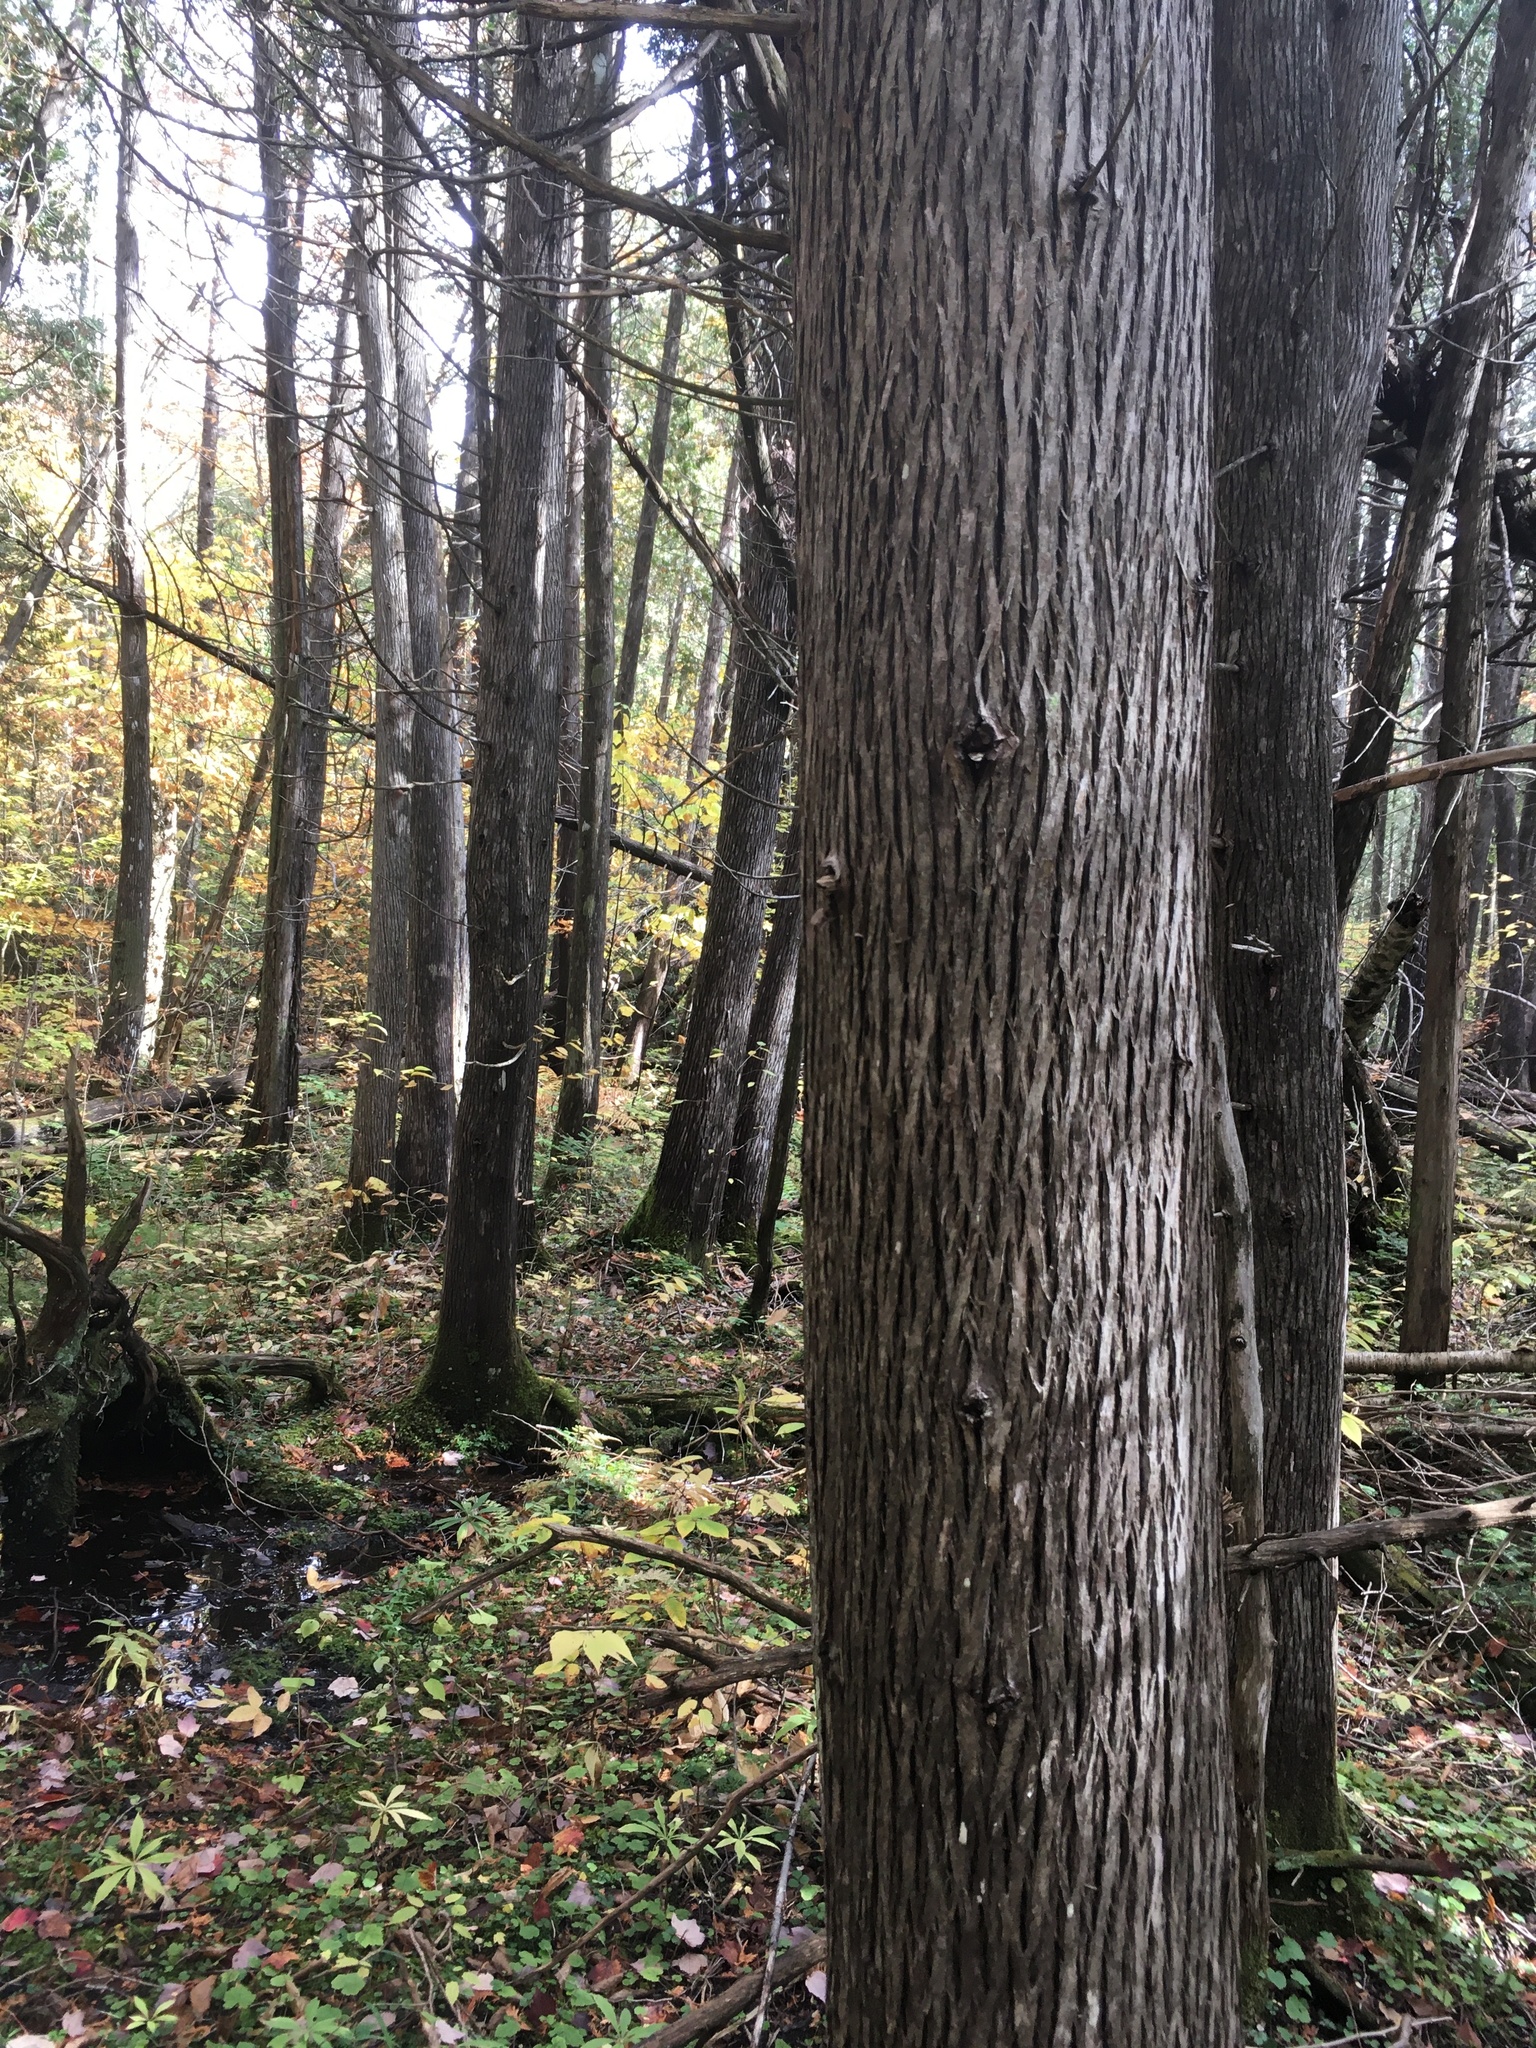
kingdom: Plantae
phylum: Tracheophyta
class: Pinopsida
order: Pinales
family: Cupressaceae
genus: Thuja
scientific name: Thuja occidentalis
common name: Northern white-cedar
